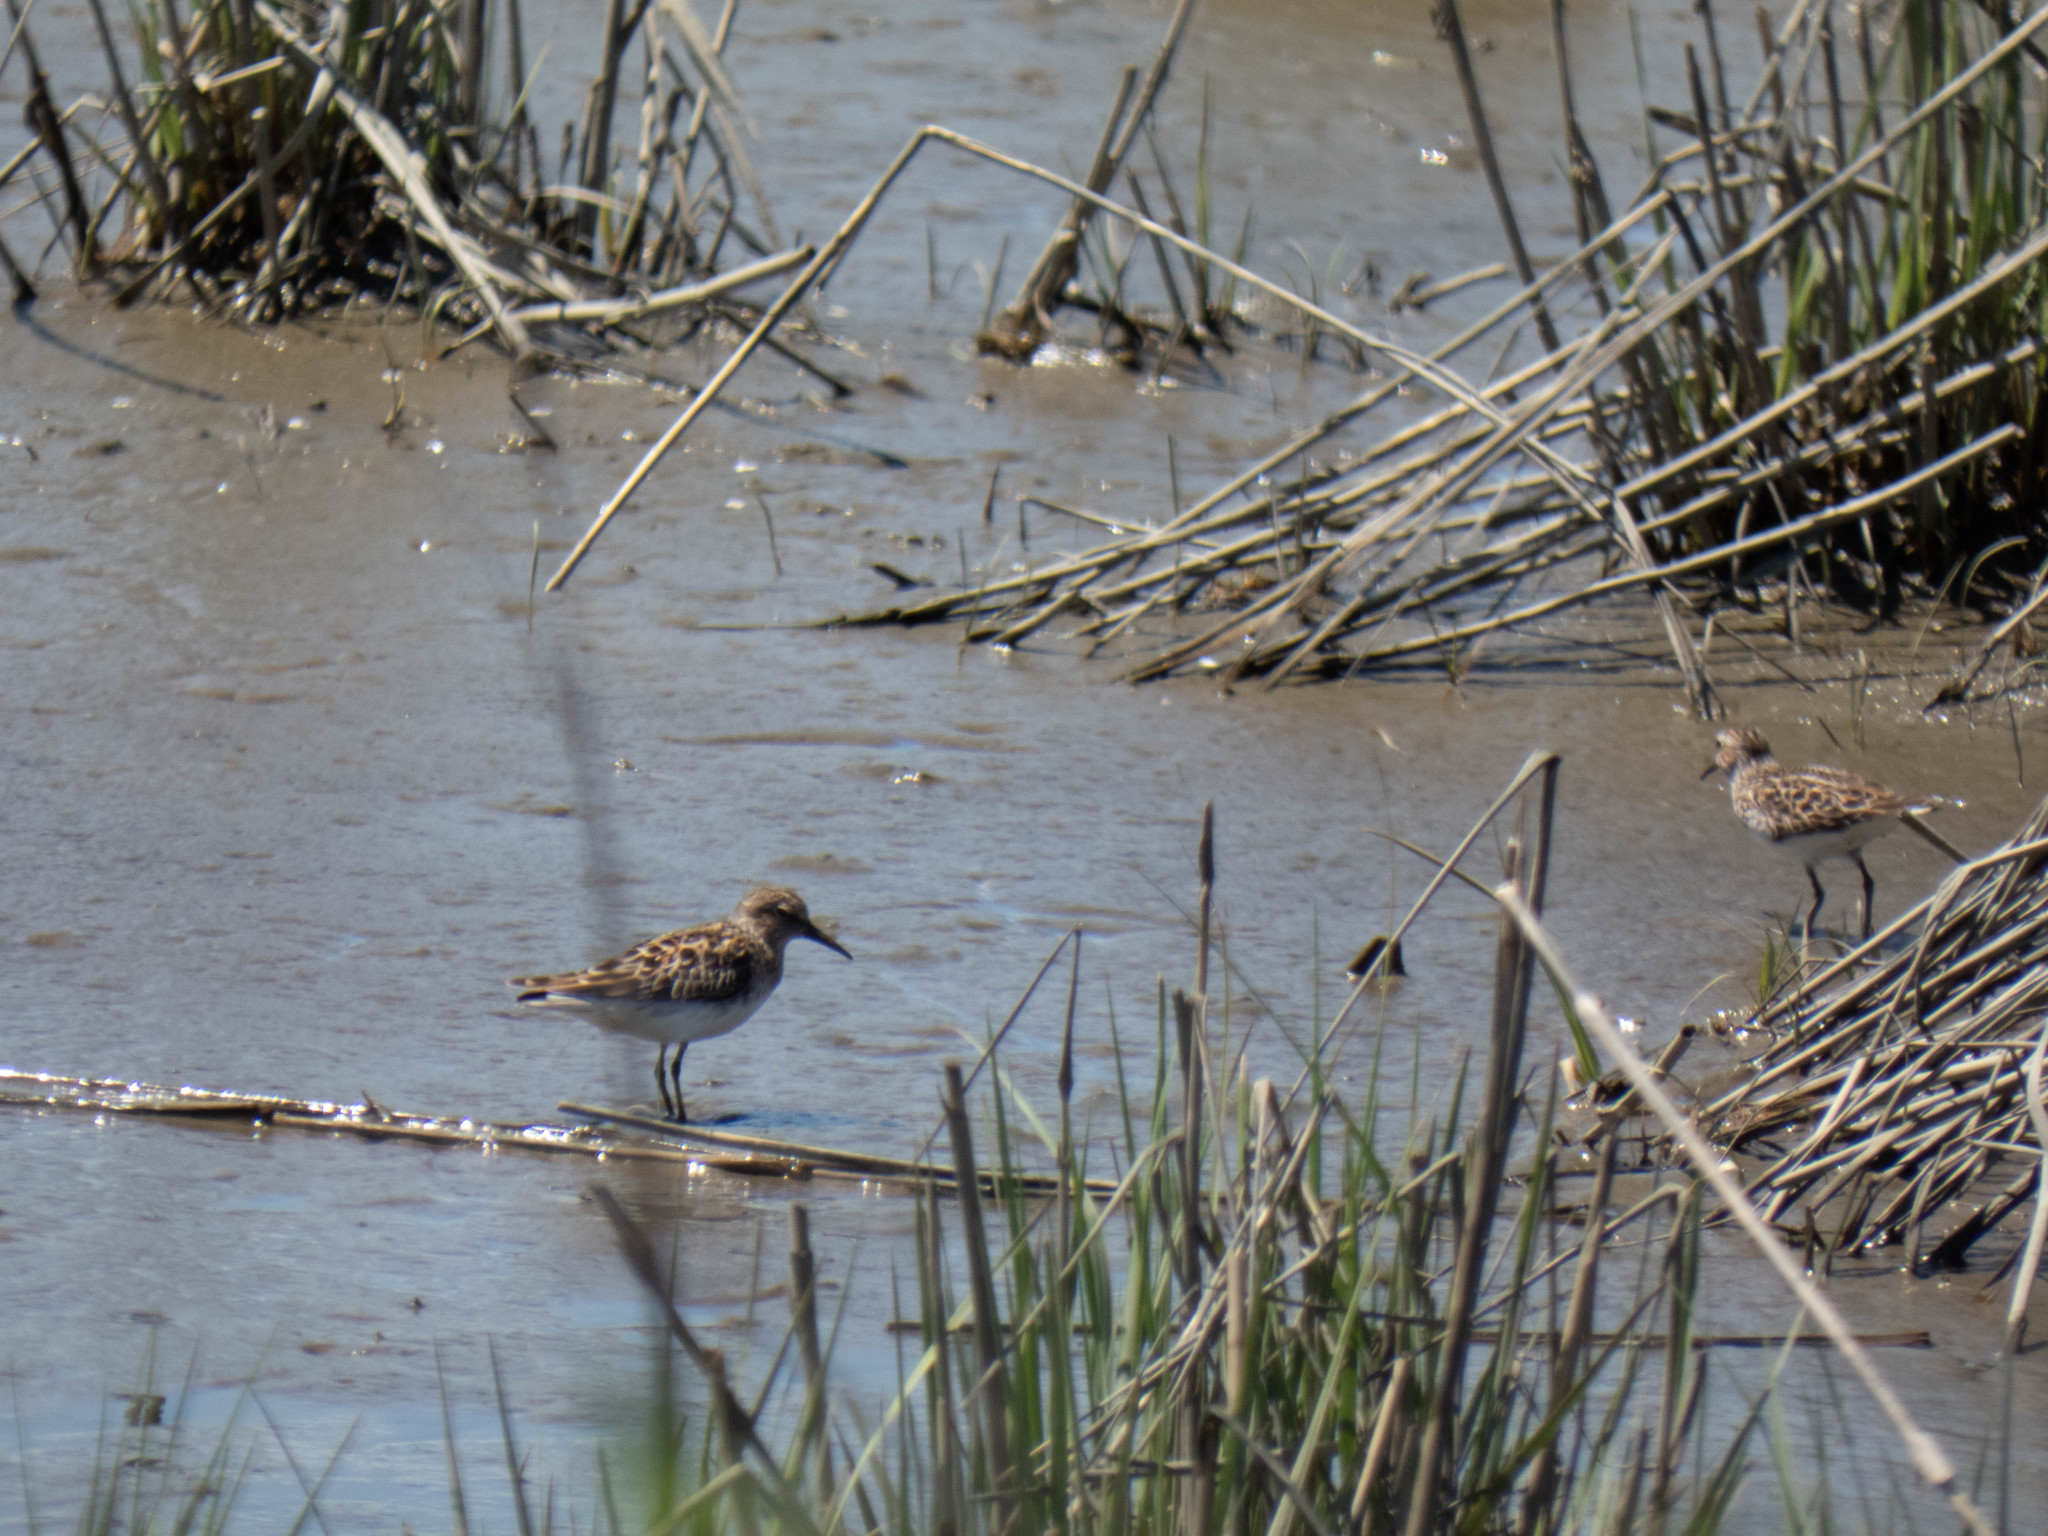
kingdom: Animalia
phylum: Chordata
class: Aves
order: Charadriiformes
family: Scolopacidae
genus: Calidris
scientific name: Calidris minutilla
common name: Least sandpiper
